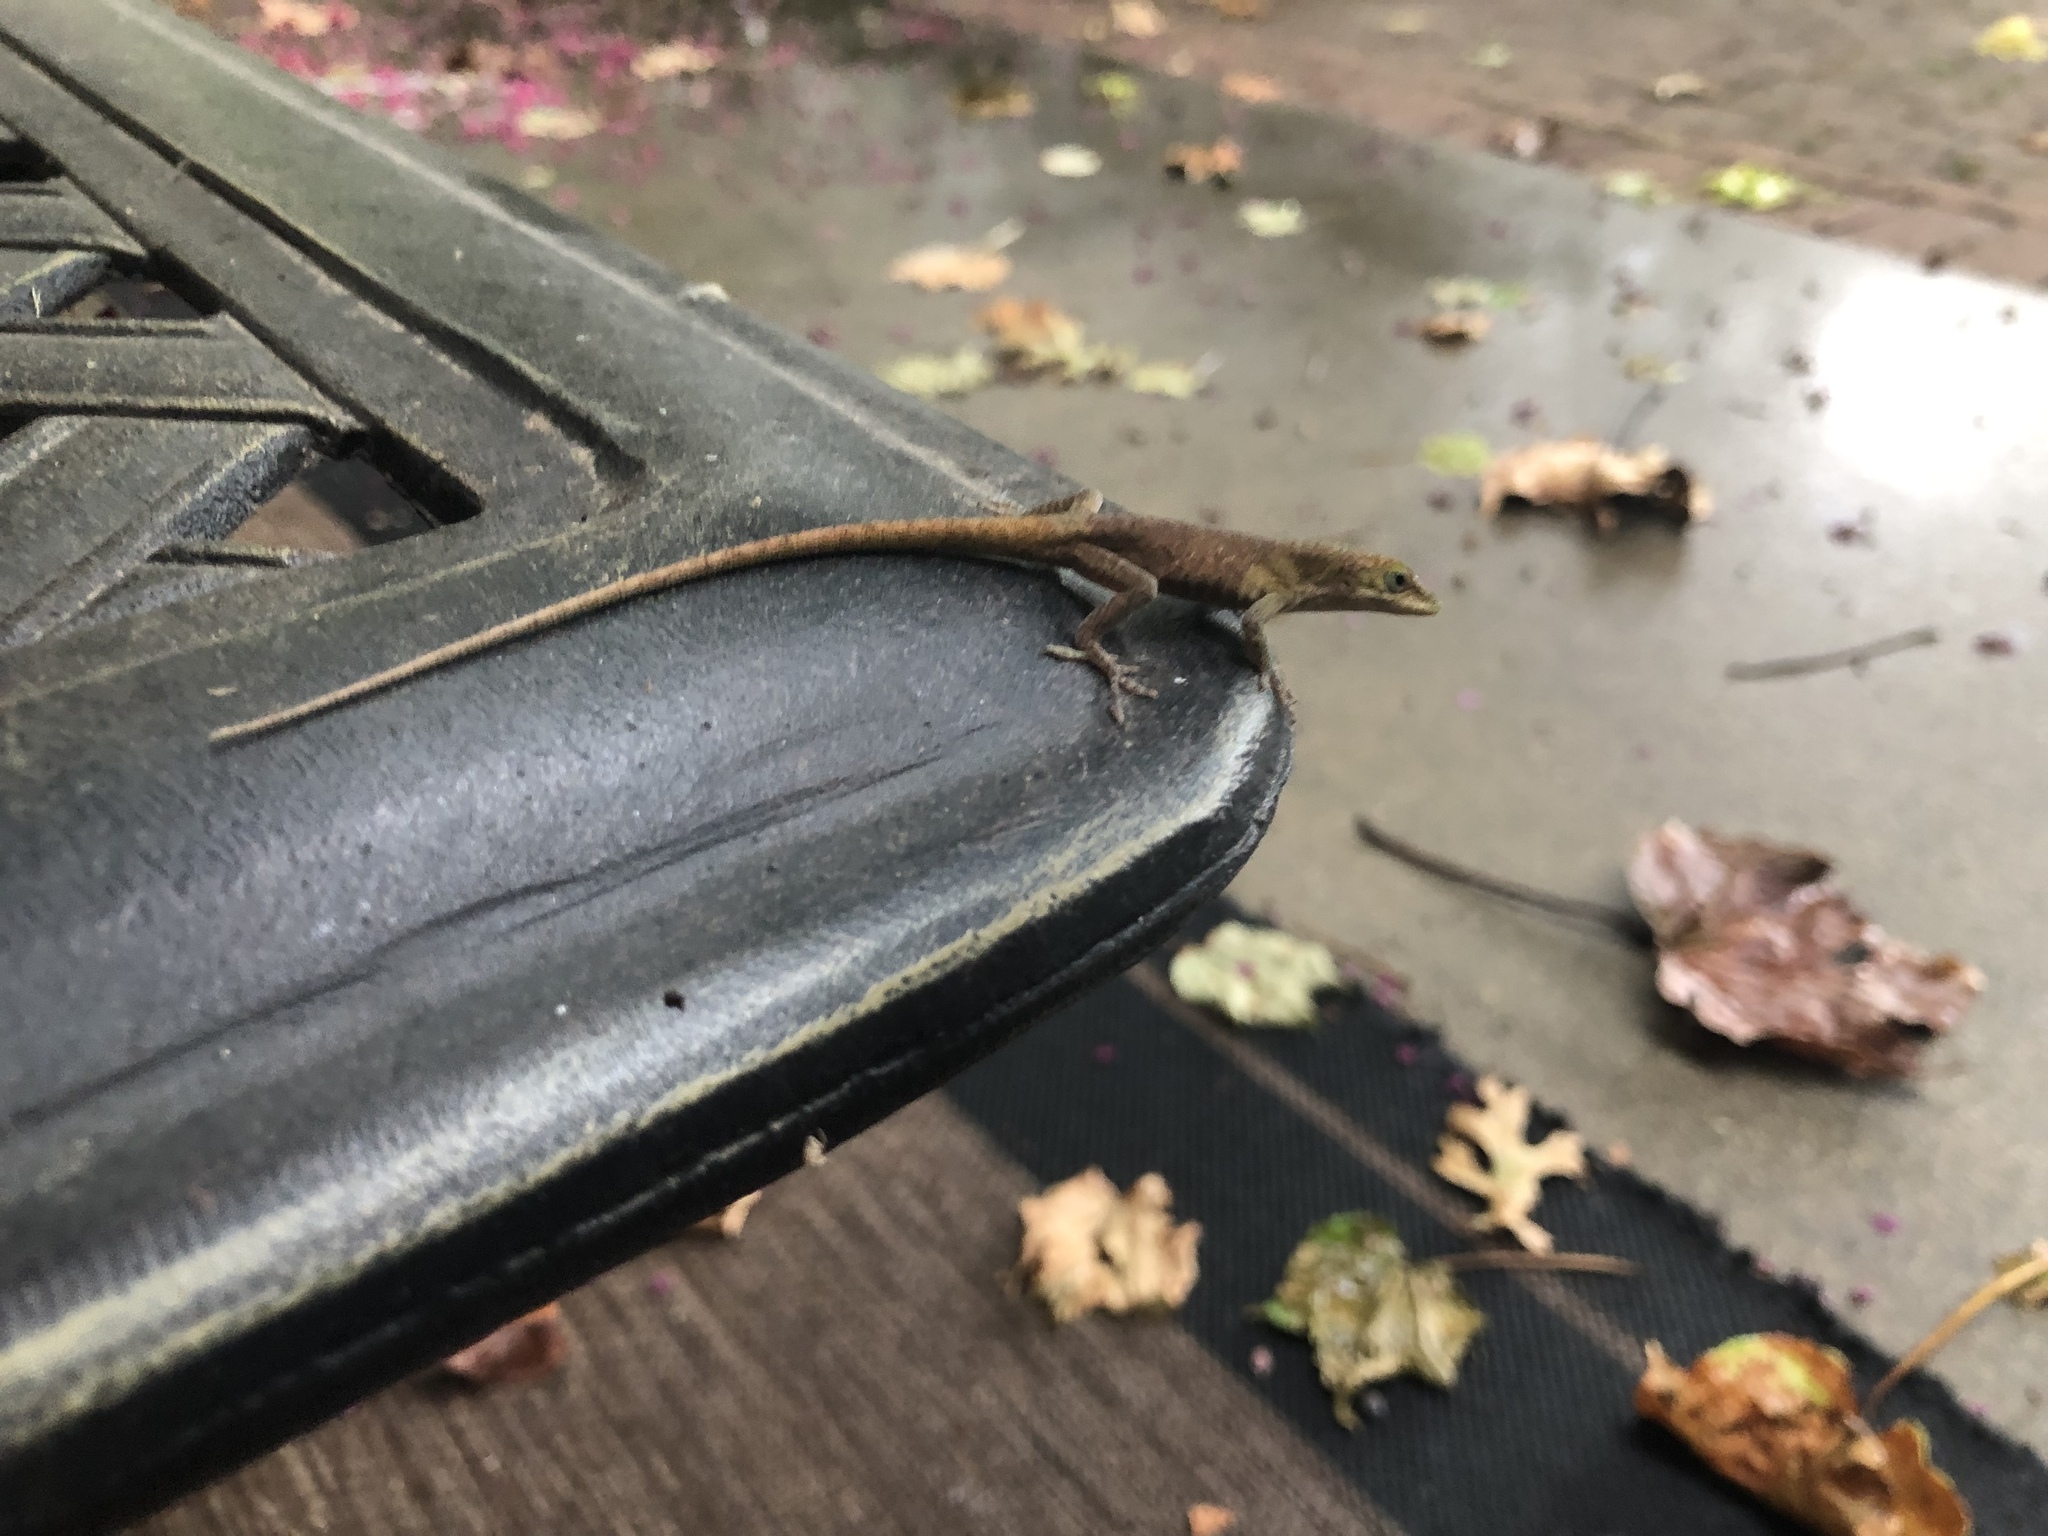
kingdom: Animalia
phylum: Chordata
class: Squamata
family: Dactyloidae
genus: Anolis
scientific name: Anolis carolinensis
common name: Green anole
